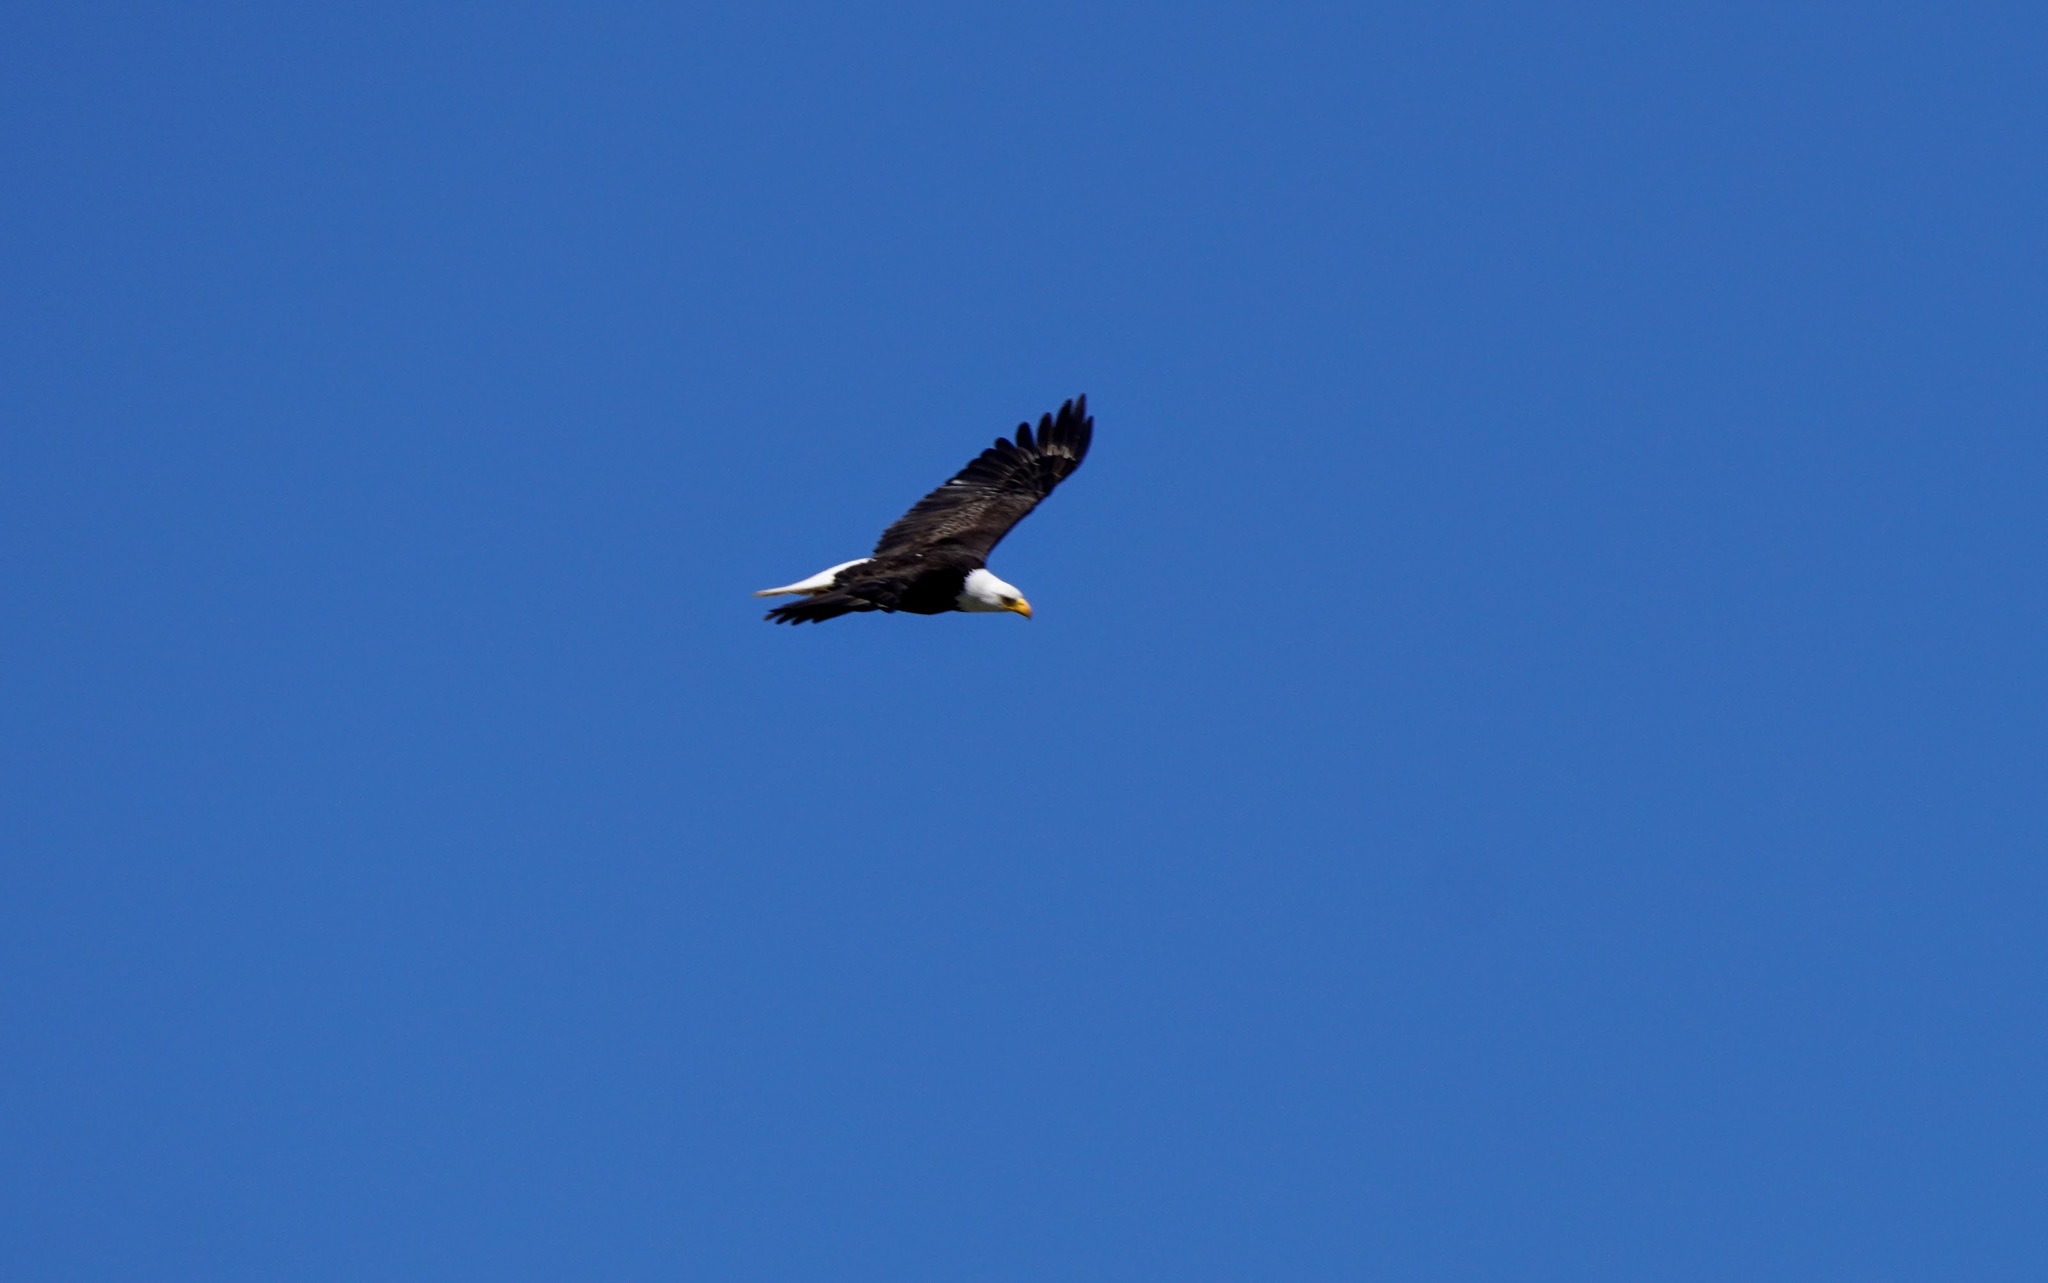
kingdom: Animalia
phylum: Chordata
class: Aves
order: Accipitriformes
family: Accipitridae
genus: Haliaeetus
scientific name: Haliaeetus leucocephalus
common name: Bald eagle
